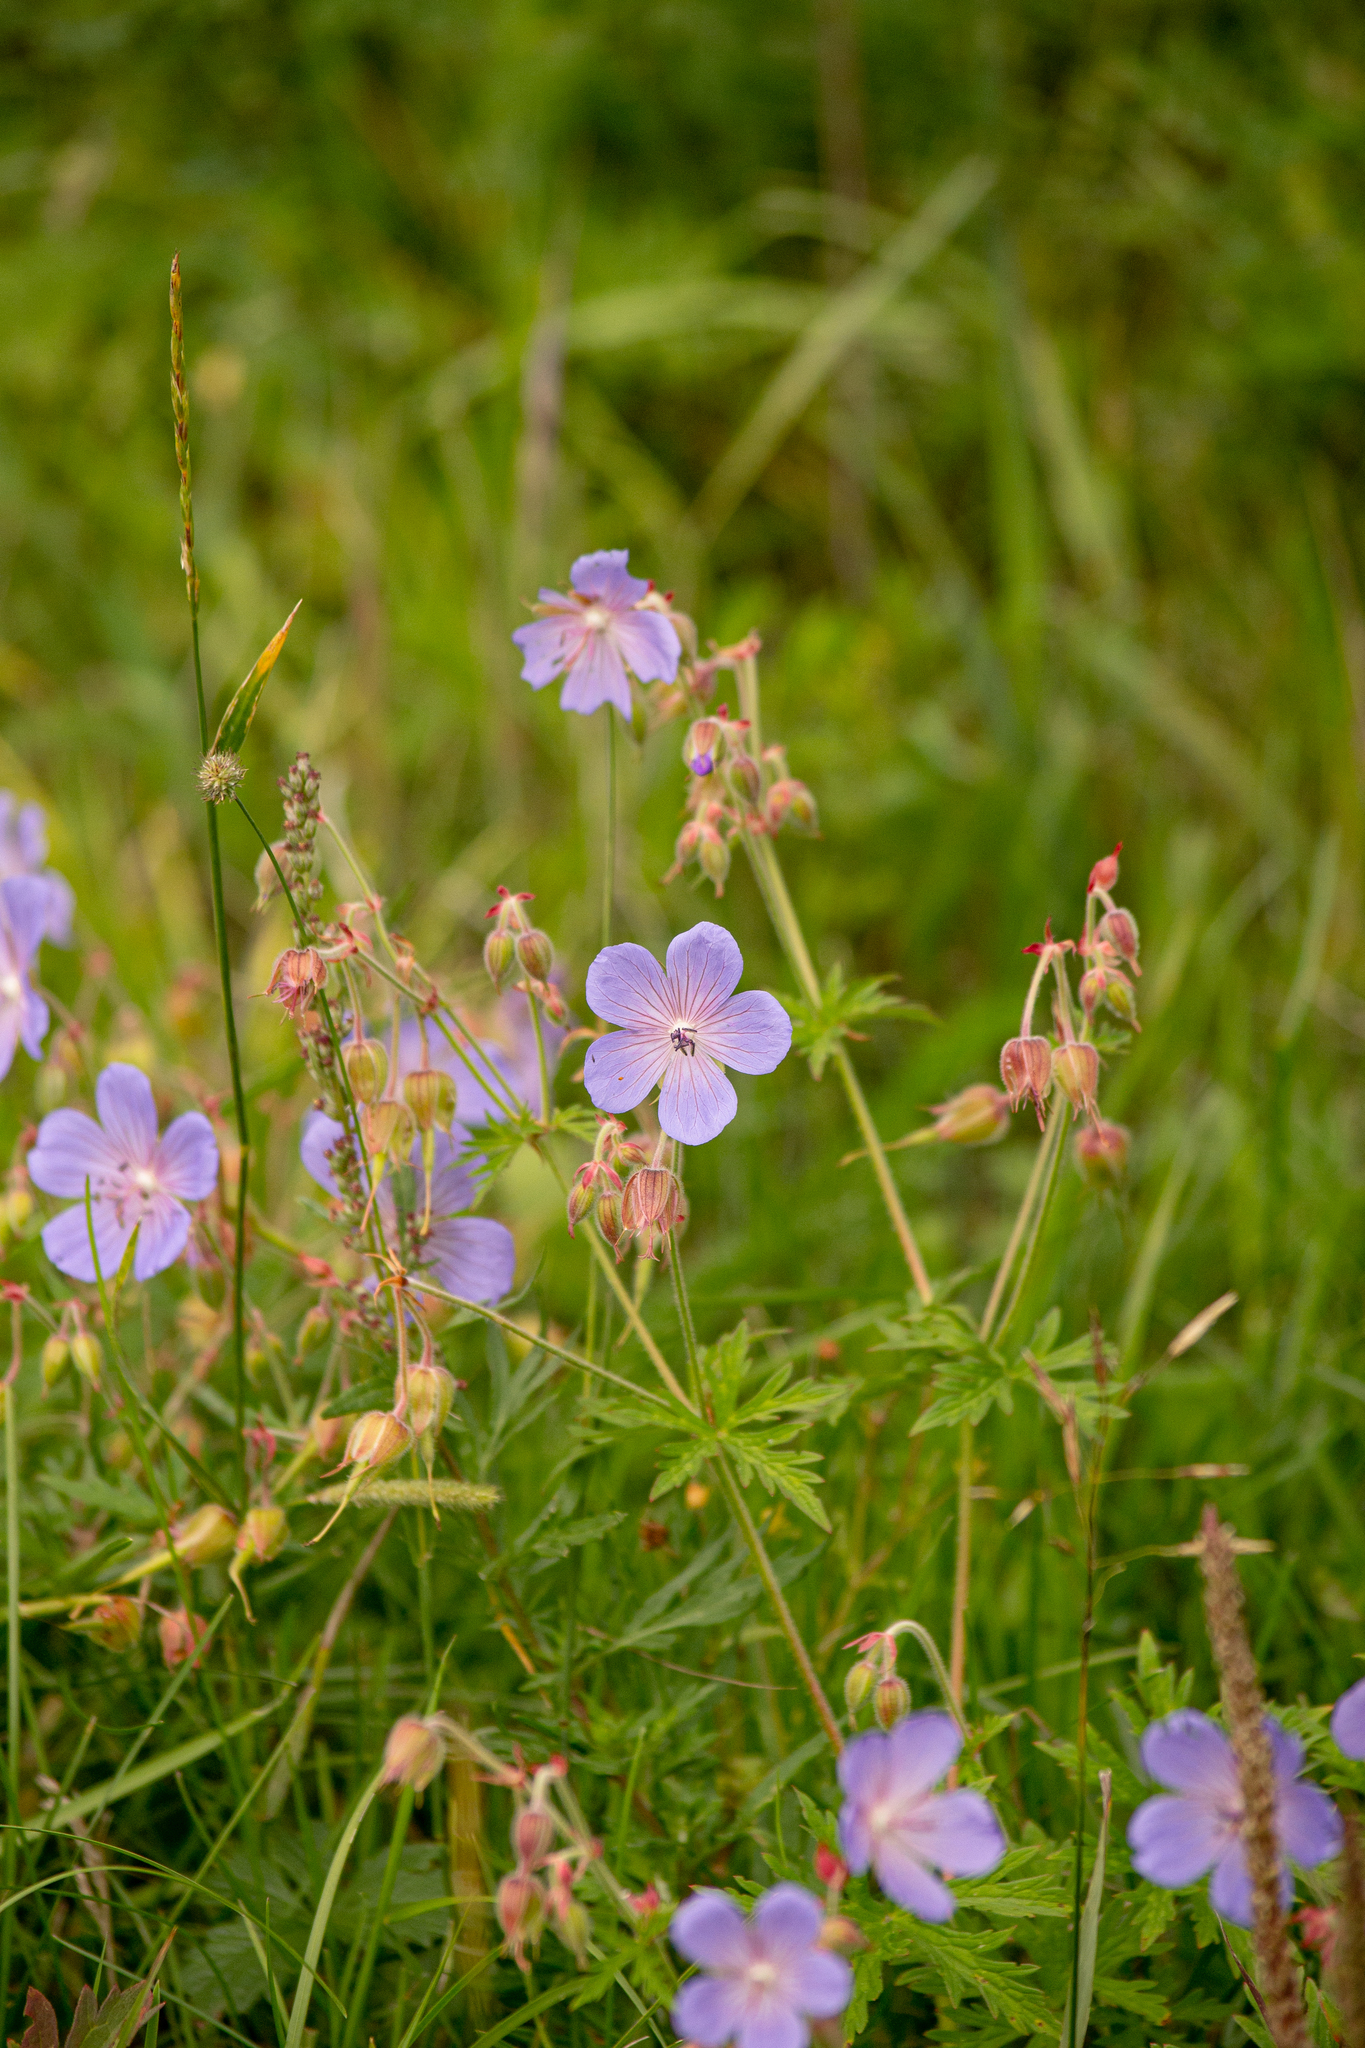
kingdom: Plantae
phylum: Tracheophyta
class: Magnoliopsida
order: Geraniales
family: Geraniaceae
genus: Geranium
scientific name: Geranium pratense
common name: Meadow crane's-bill
